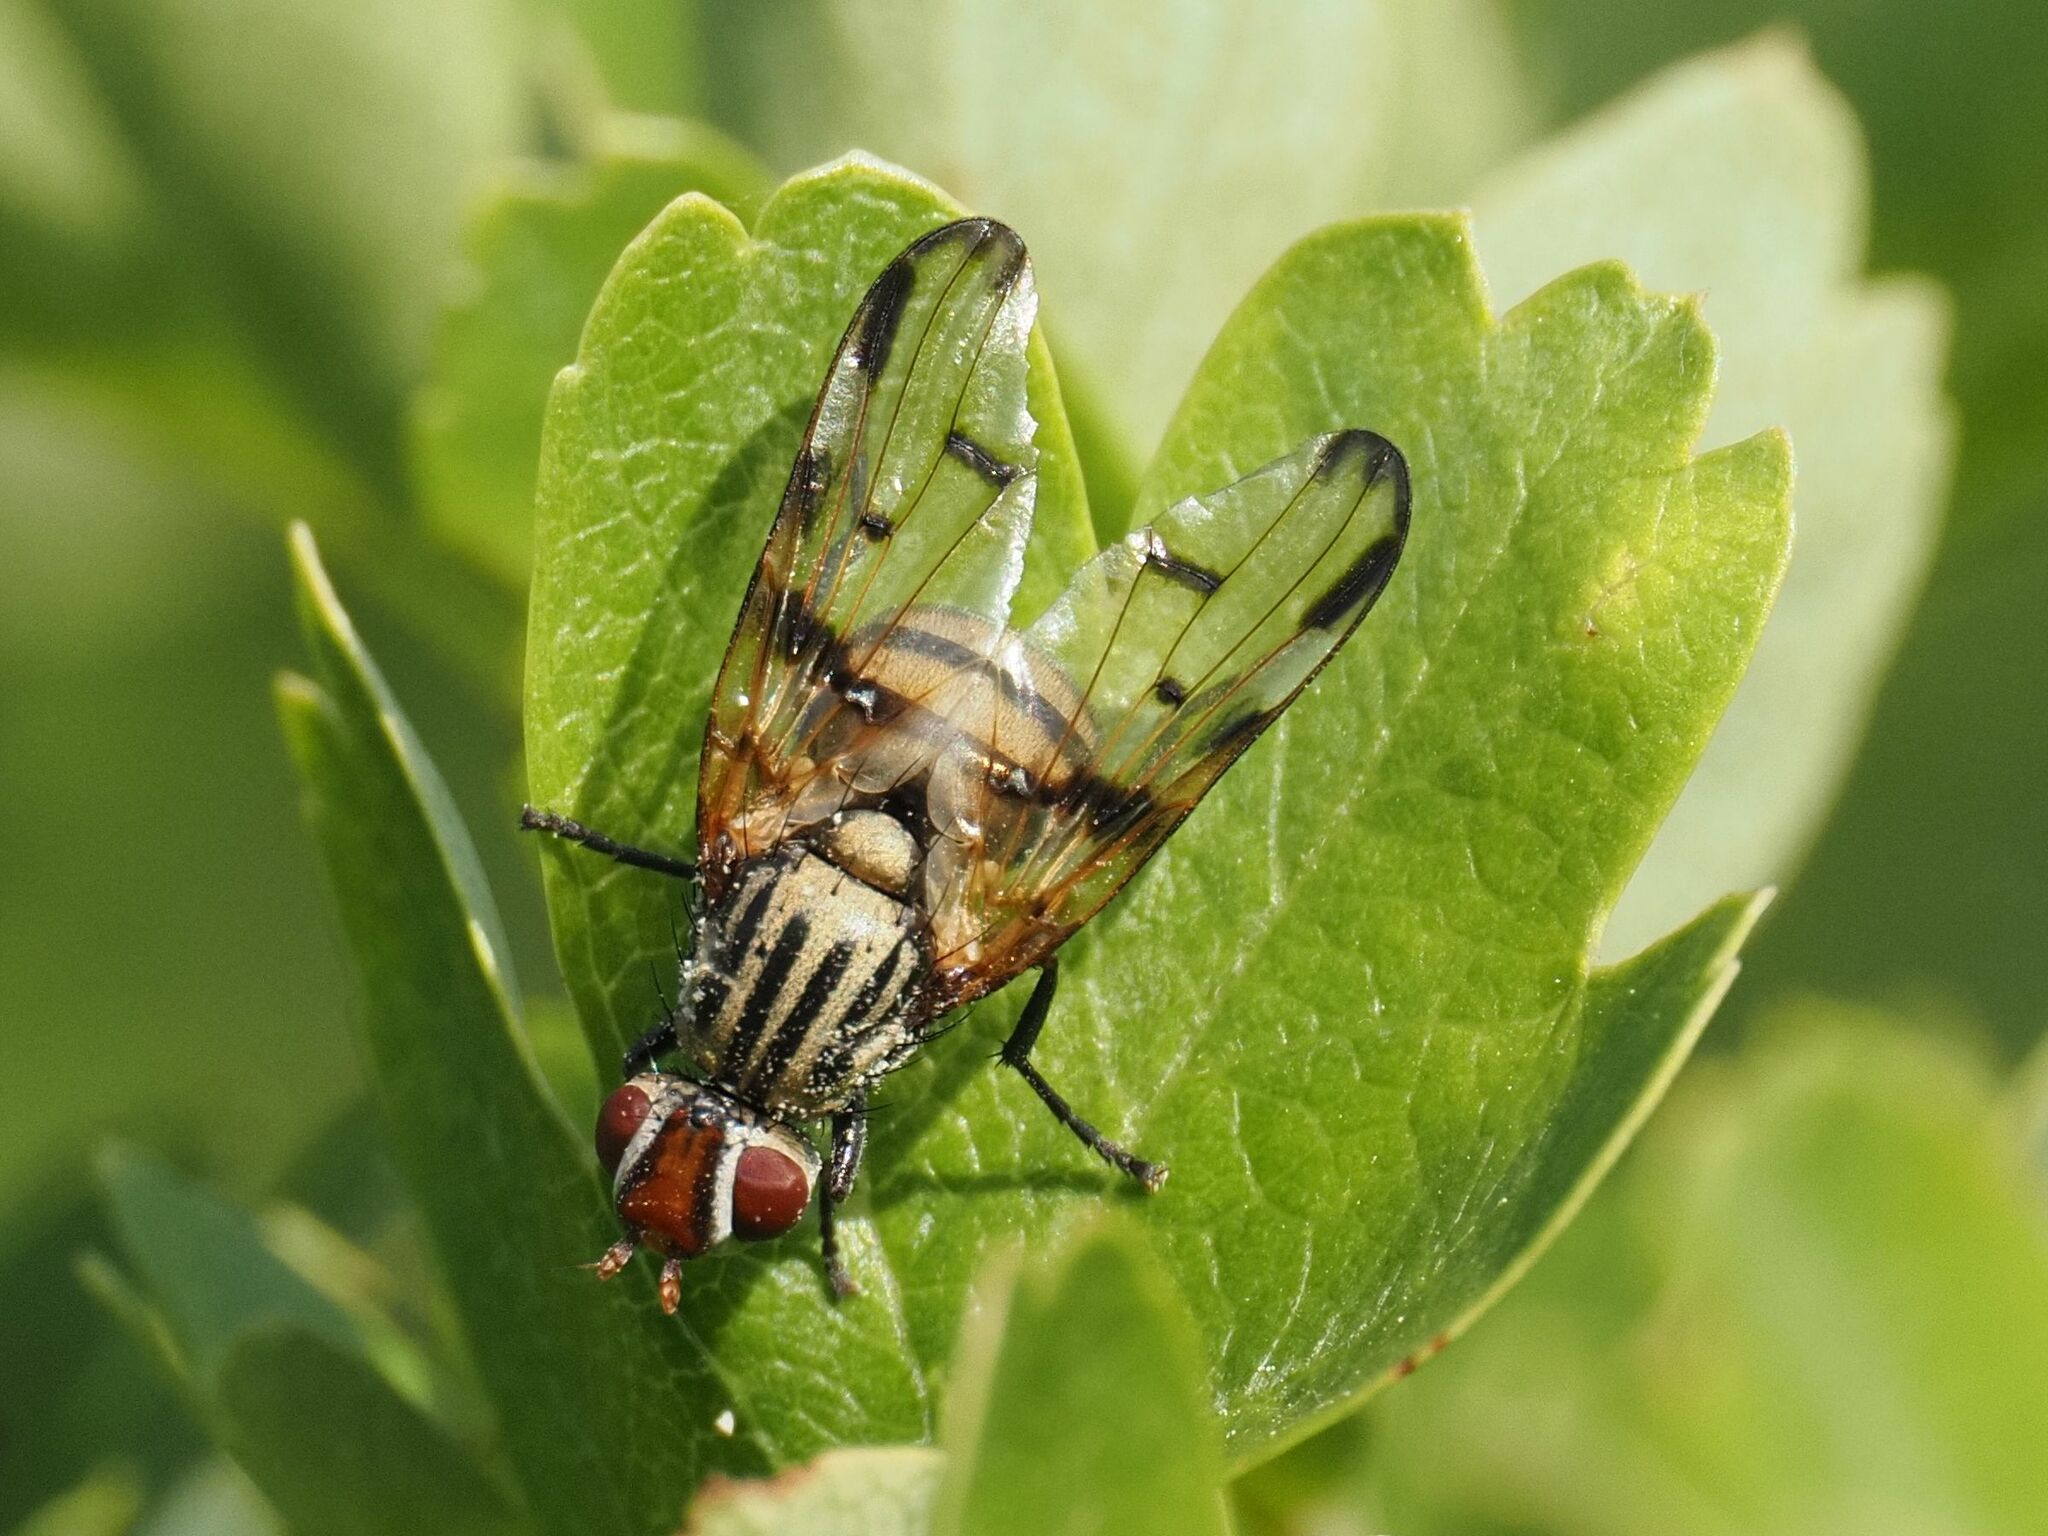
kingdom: Animalia
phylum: Arthropoda
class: Insecta
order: Diptera
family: Ulidiidae
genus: Otites
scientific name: Otites formosa
